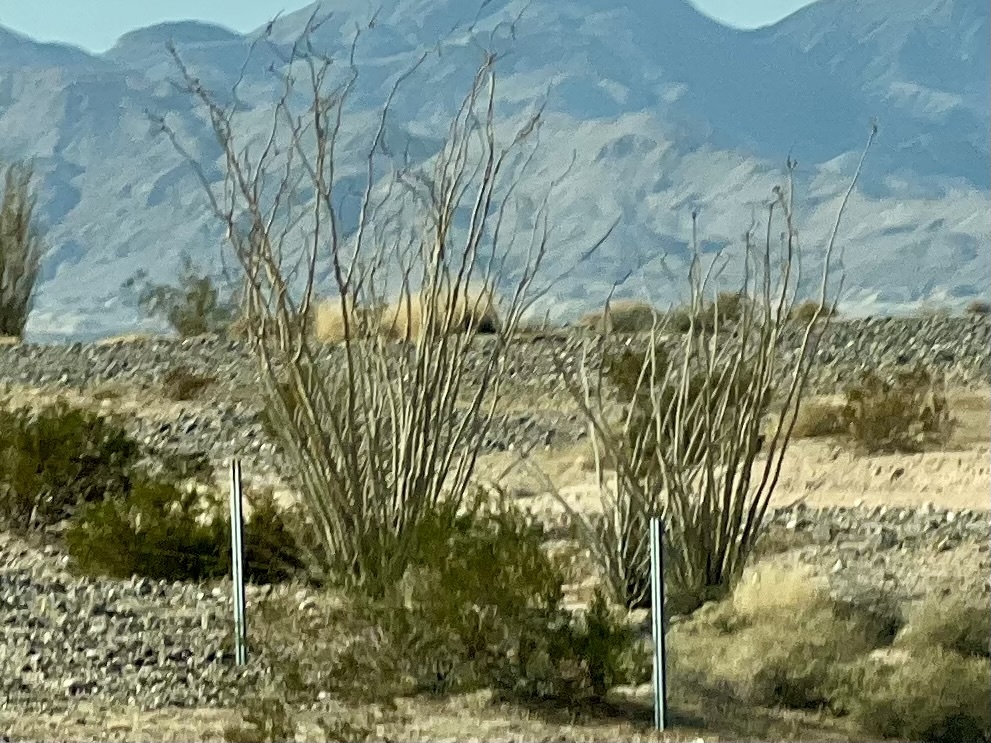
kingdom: Plantae
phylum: Tracheophyta
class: Magnoliopsida
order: Ericales
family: Fouquieriaceae
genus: Fouquieria
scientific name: Fouquieria splendens
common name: Vine-cactus
